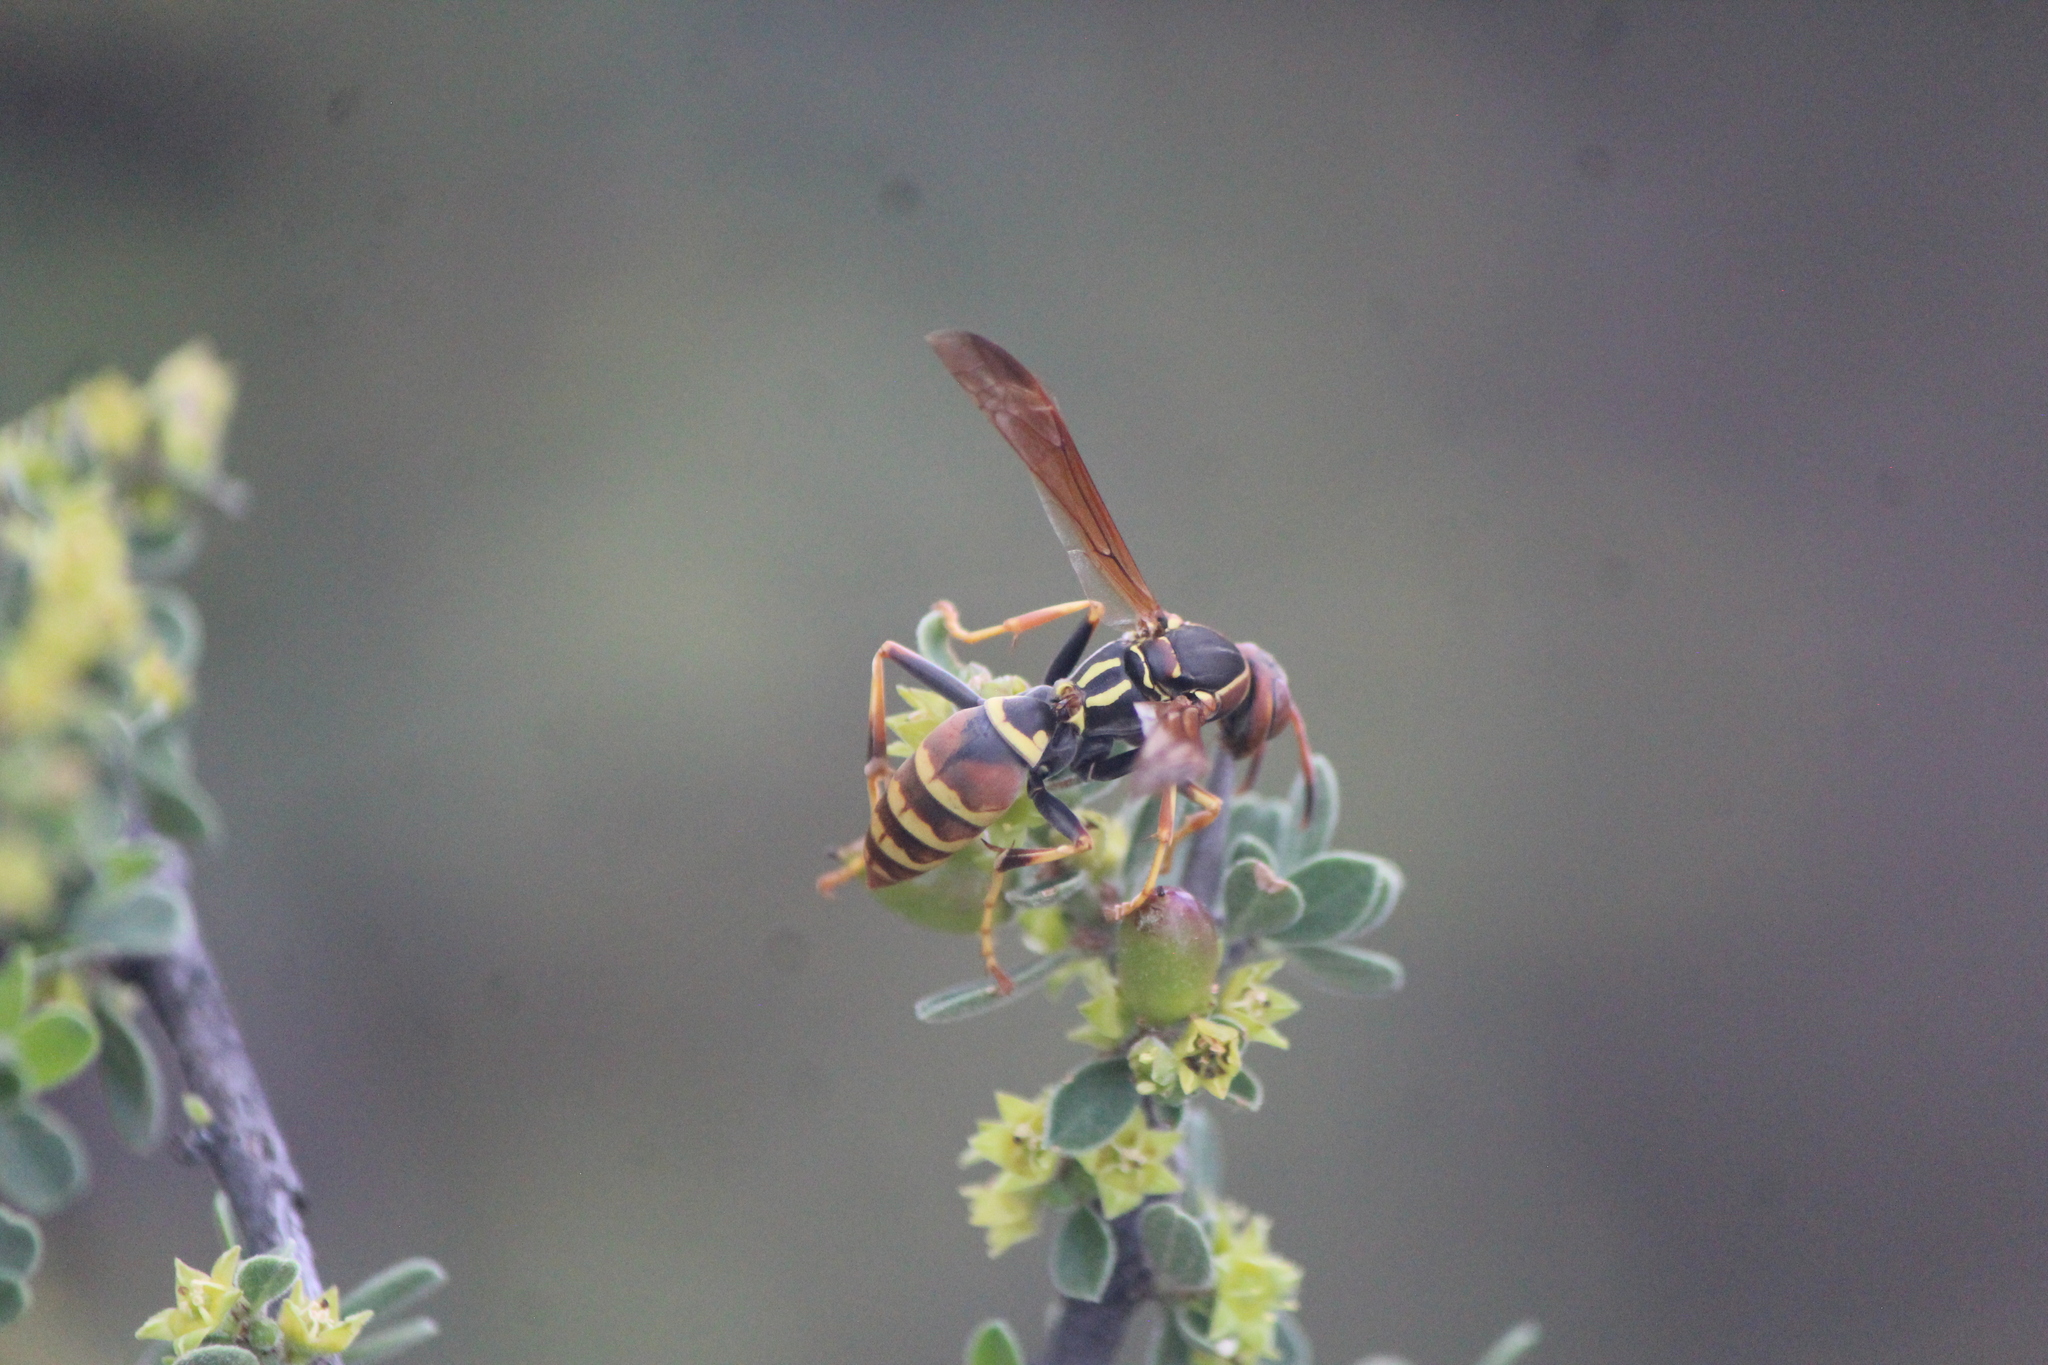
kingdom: Animalia
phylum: Arthropoda
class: Insecta
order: Hymenoptera
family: Eumenidae
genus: Polistes
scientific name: Polistes dorsalis
